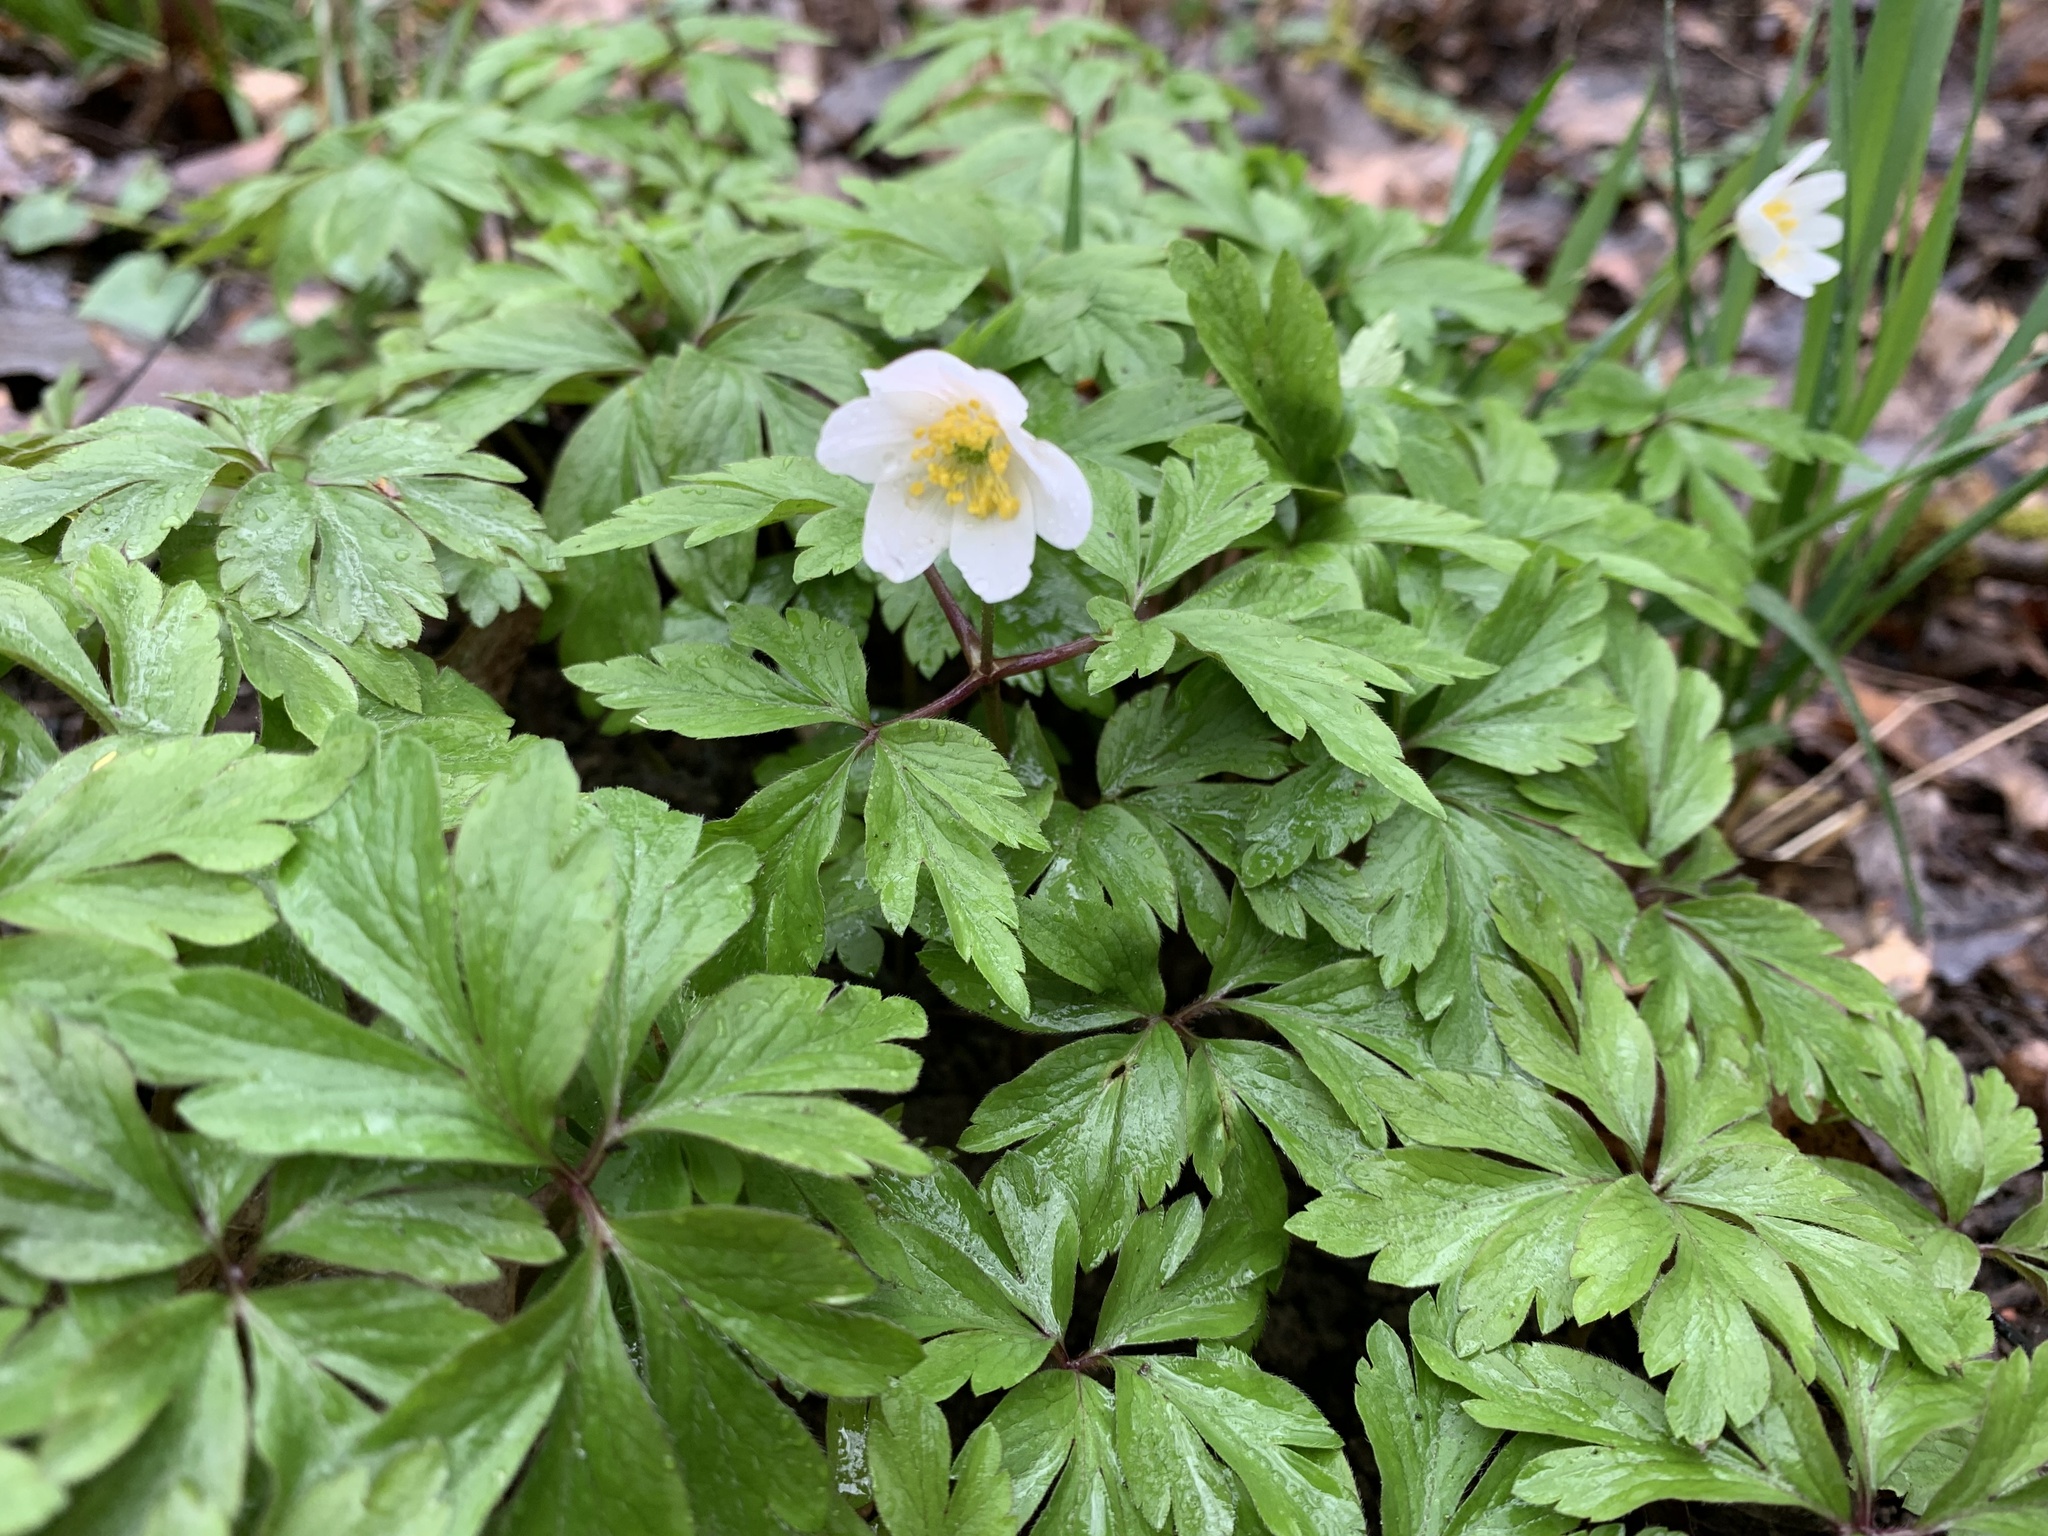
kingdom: Plantae
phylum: Tracheophyta
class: Magnoliopsida
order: Ranunculales
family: Ranunculaceae
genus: Anemone
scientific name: Anemone nemorosa
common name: Wood anemone
